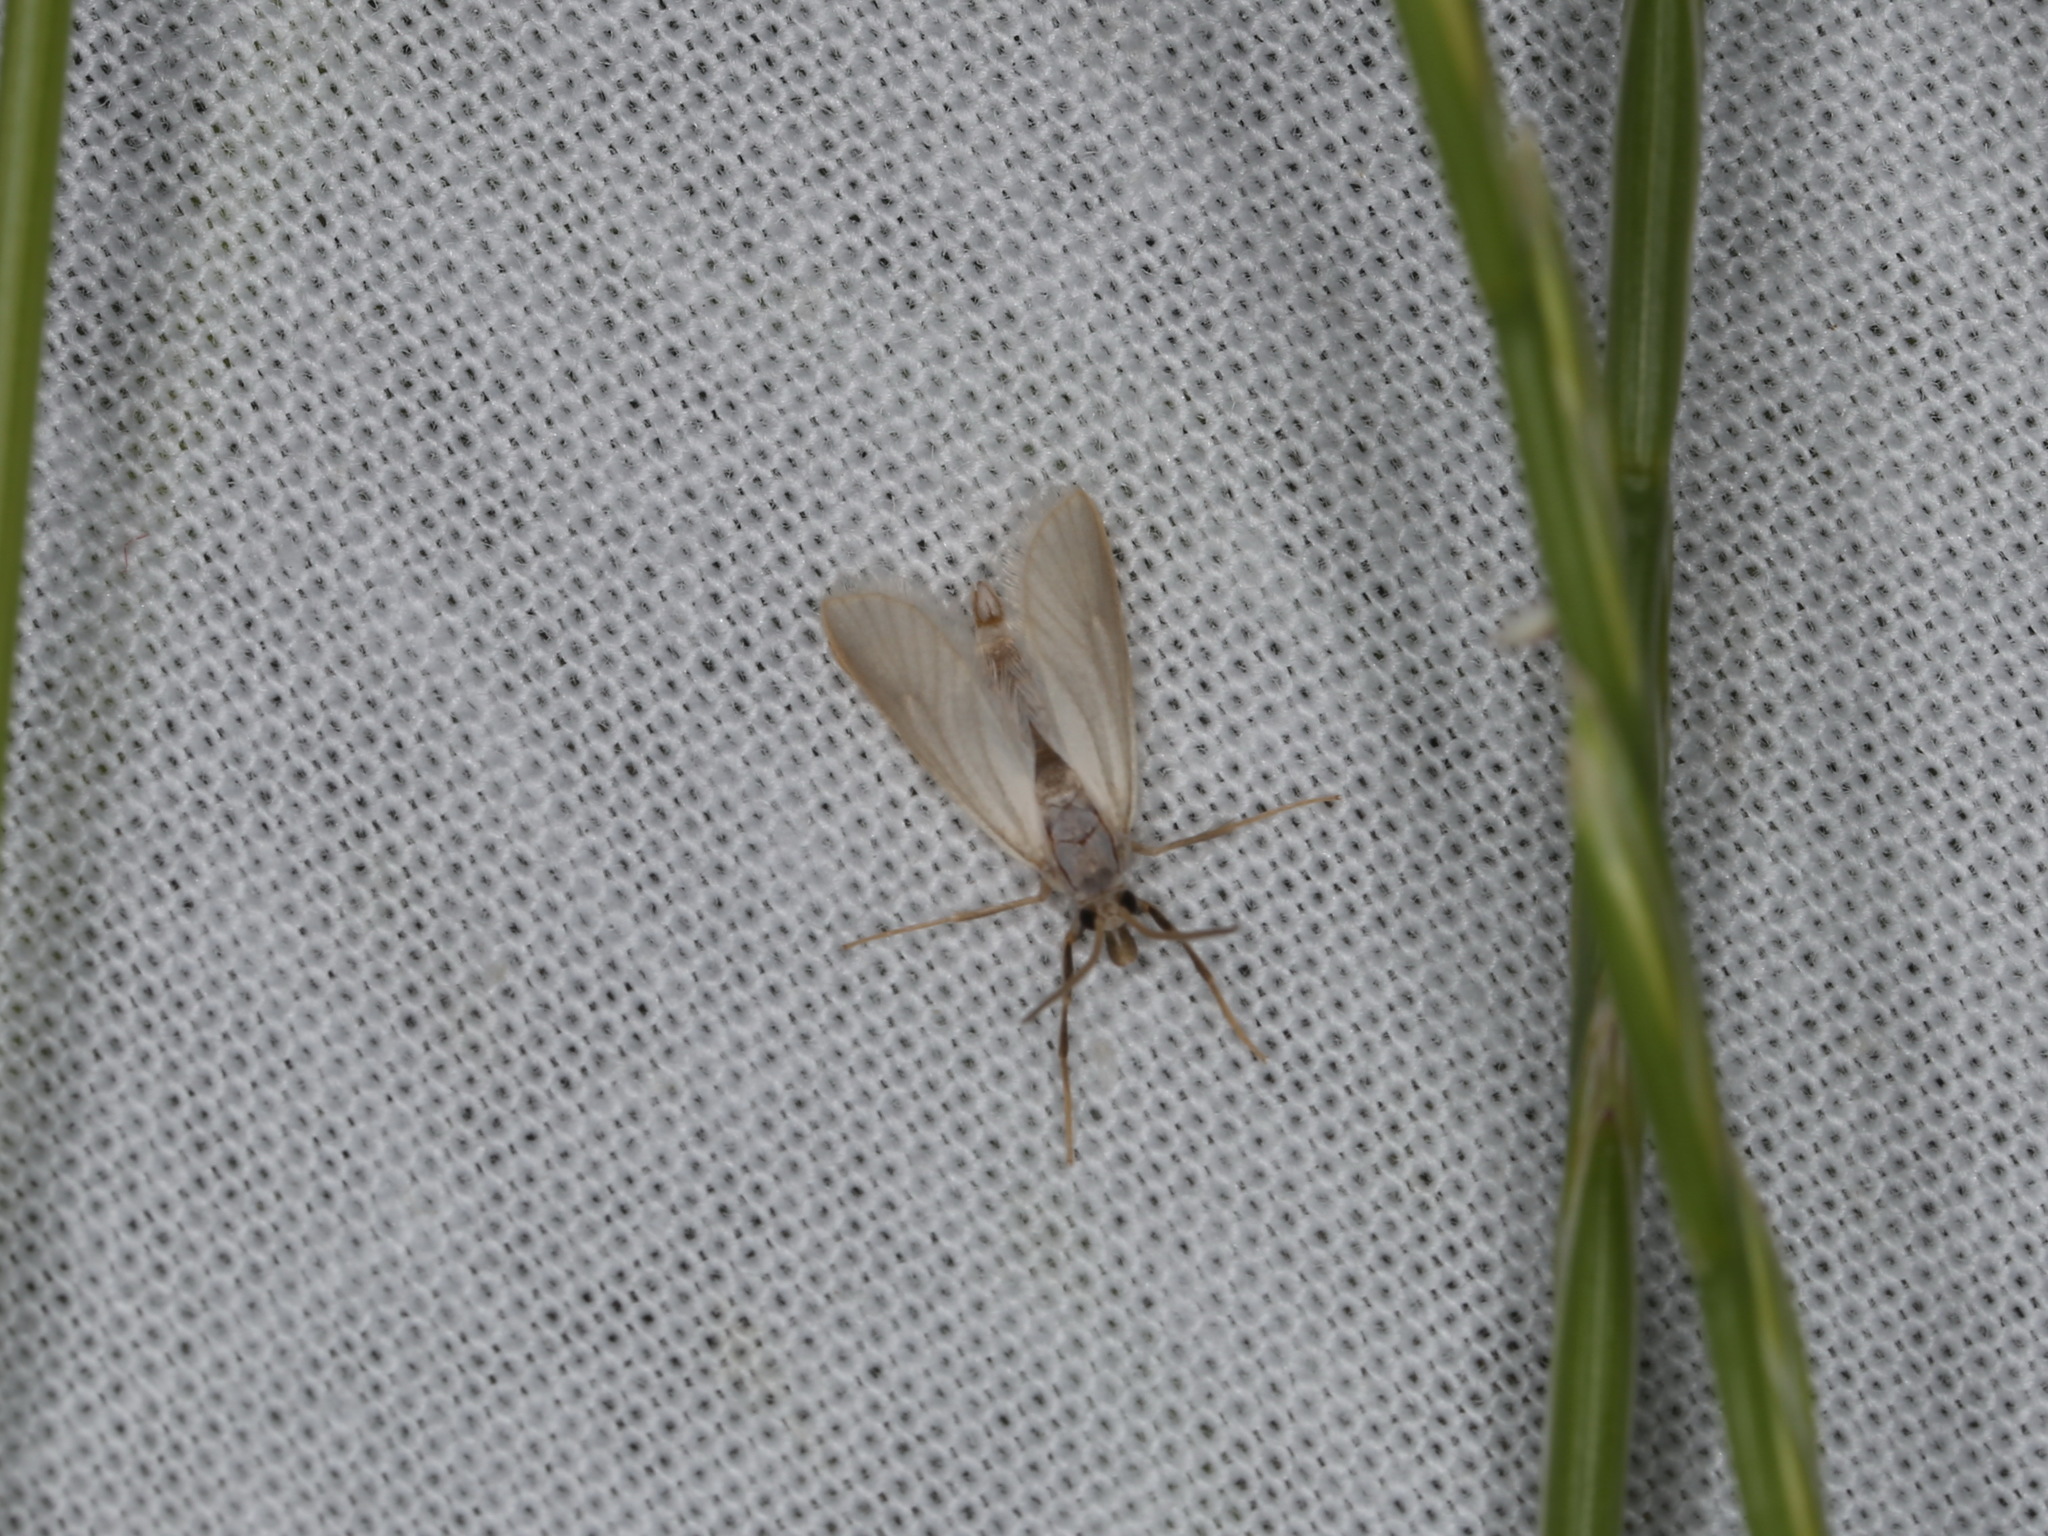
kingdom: Animalia
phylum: Arthropoda
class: Insecta
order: Lepidoptera
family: Crambidae
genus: Acentria
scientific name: Acentria ephemerella
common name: European water moth
